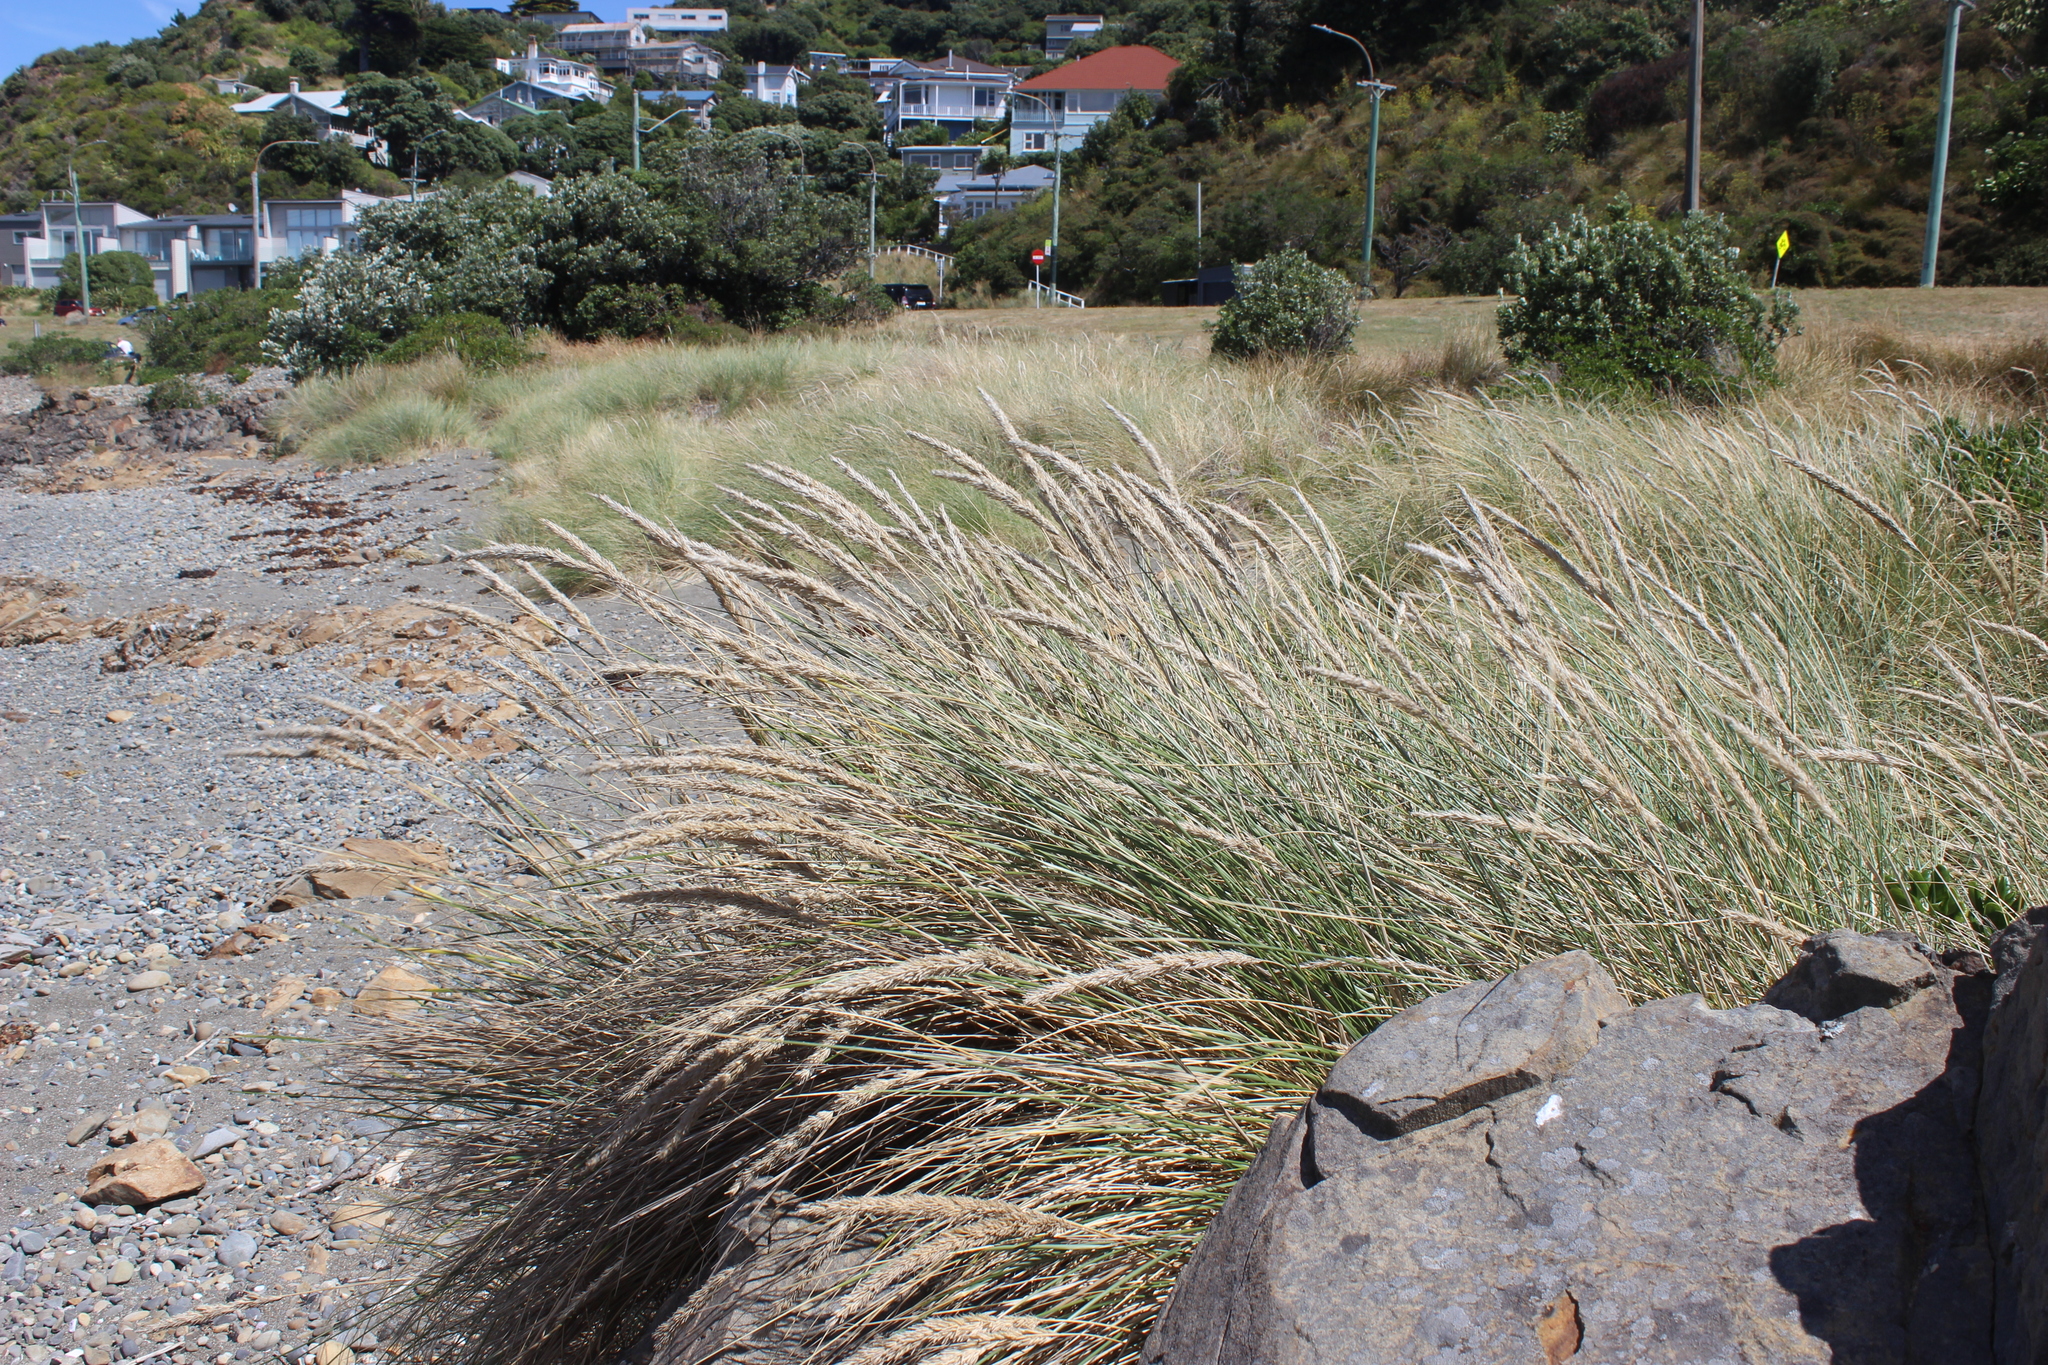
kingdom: Plantae
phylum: Tracheophyta
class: Liliopsida
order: Poales
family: Poaceae
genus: Calamagrostis
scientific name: Calamagrostis arenaria
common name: European beachgrass
